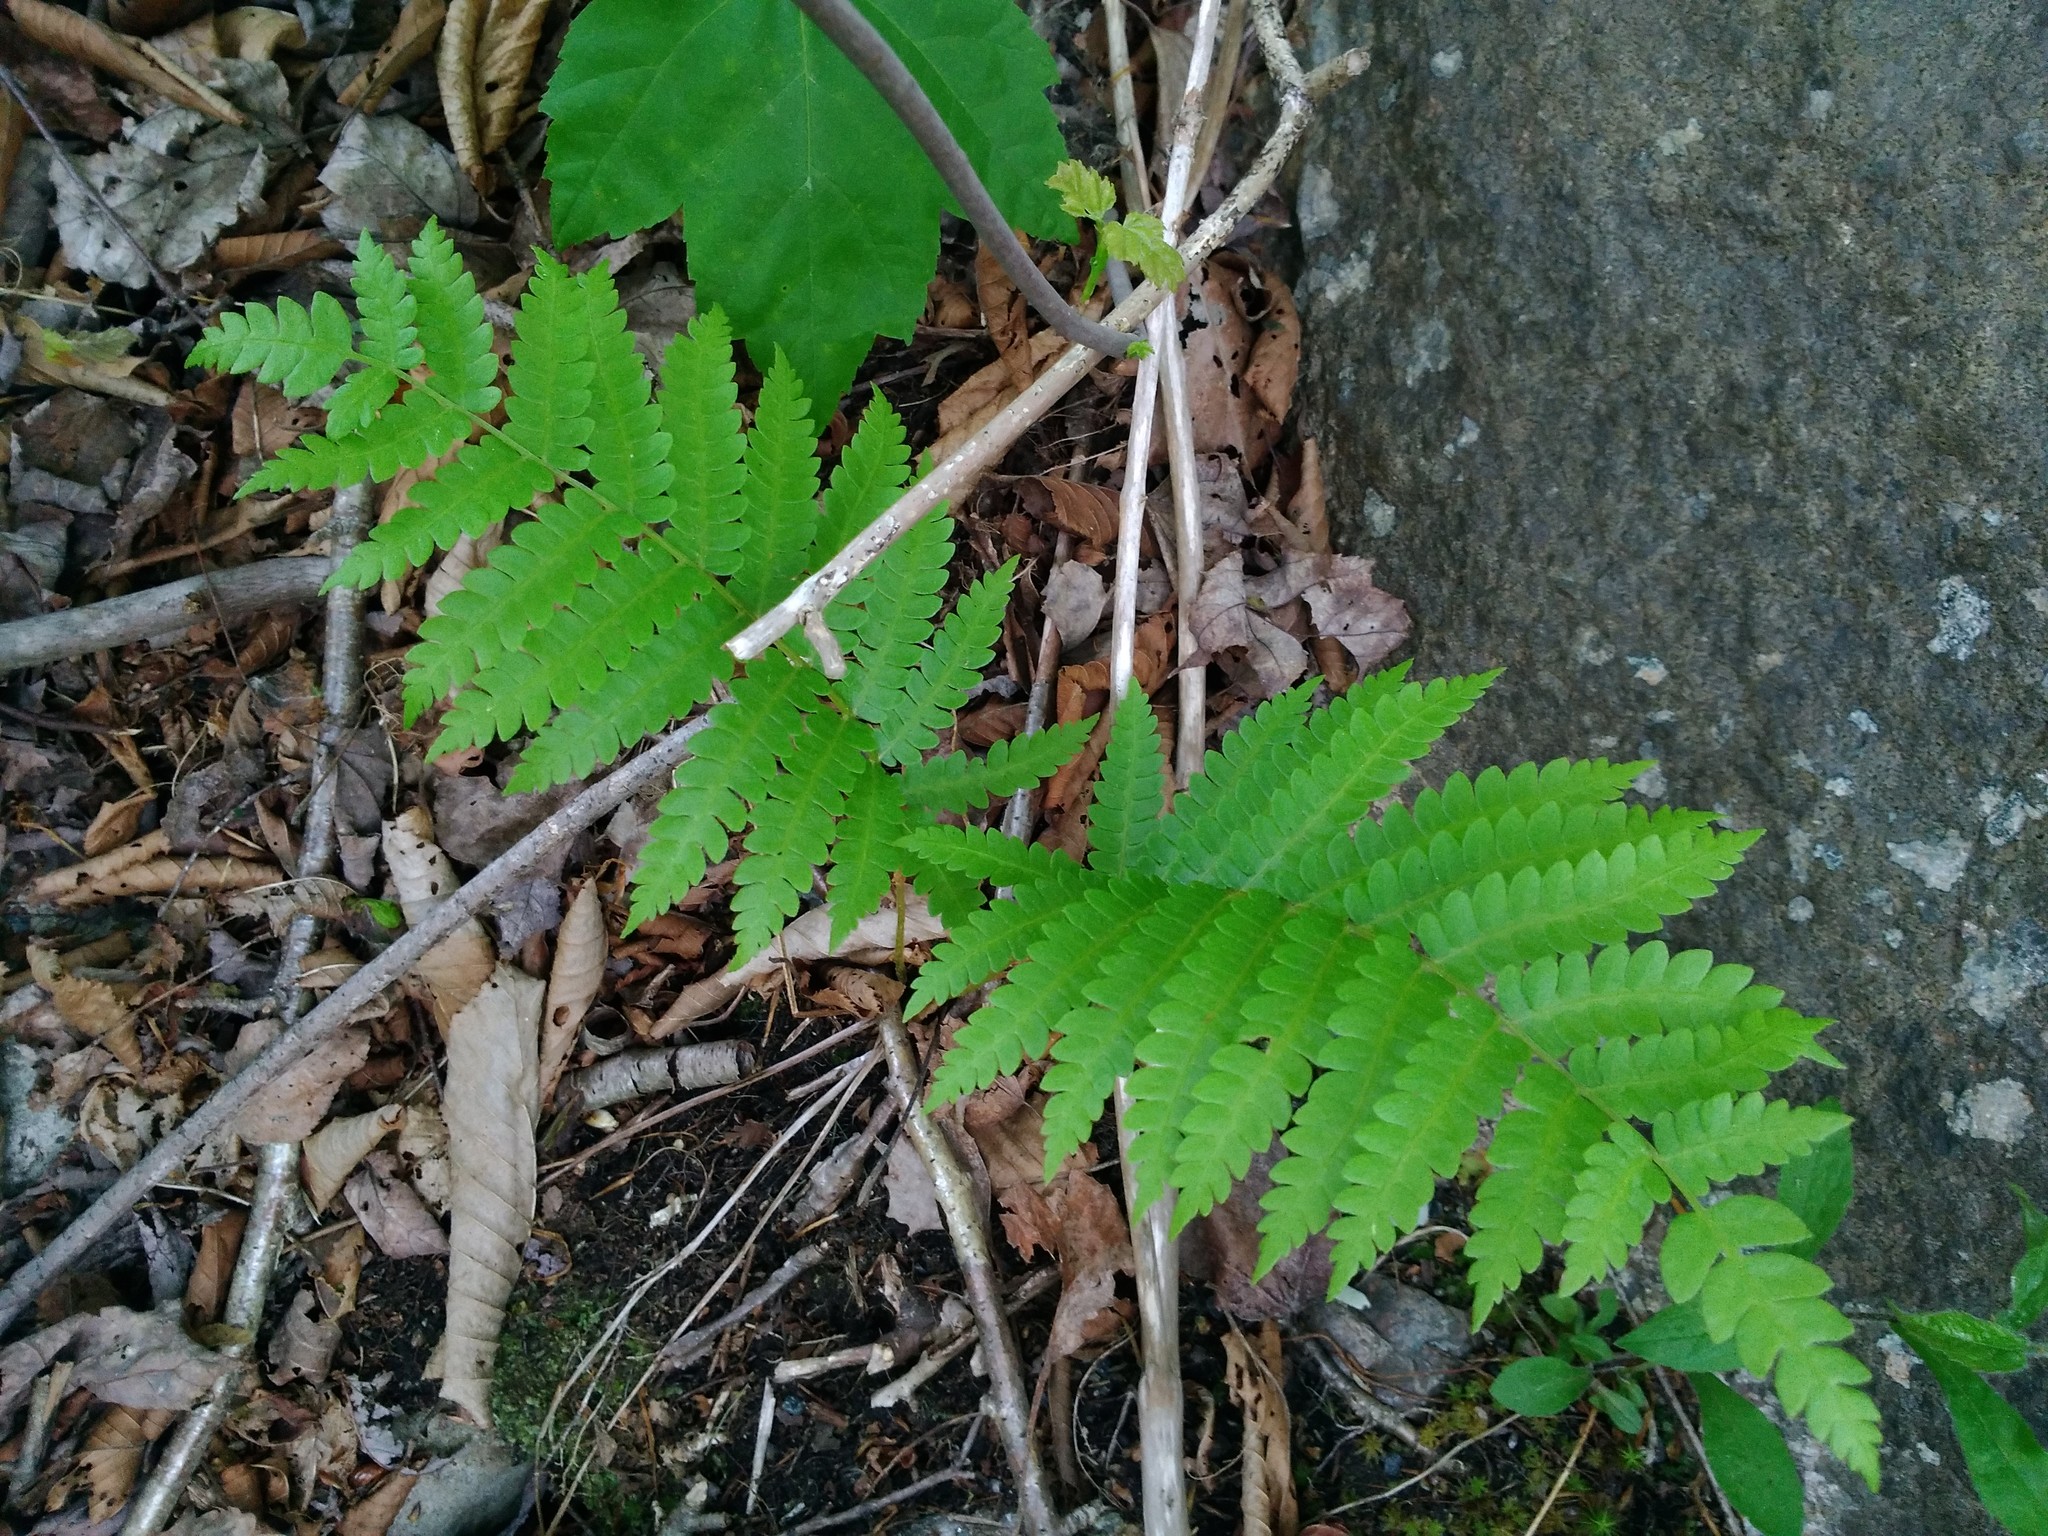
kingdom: Plantae
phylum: Tracheophyta
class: Polypodiopsida
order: Osmundales
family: Osmundaceae
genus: Osmundastrum
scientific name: Osmundastrum cinnamomeum
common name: Cinnamon fern
